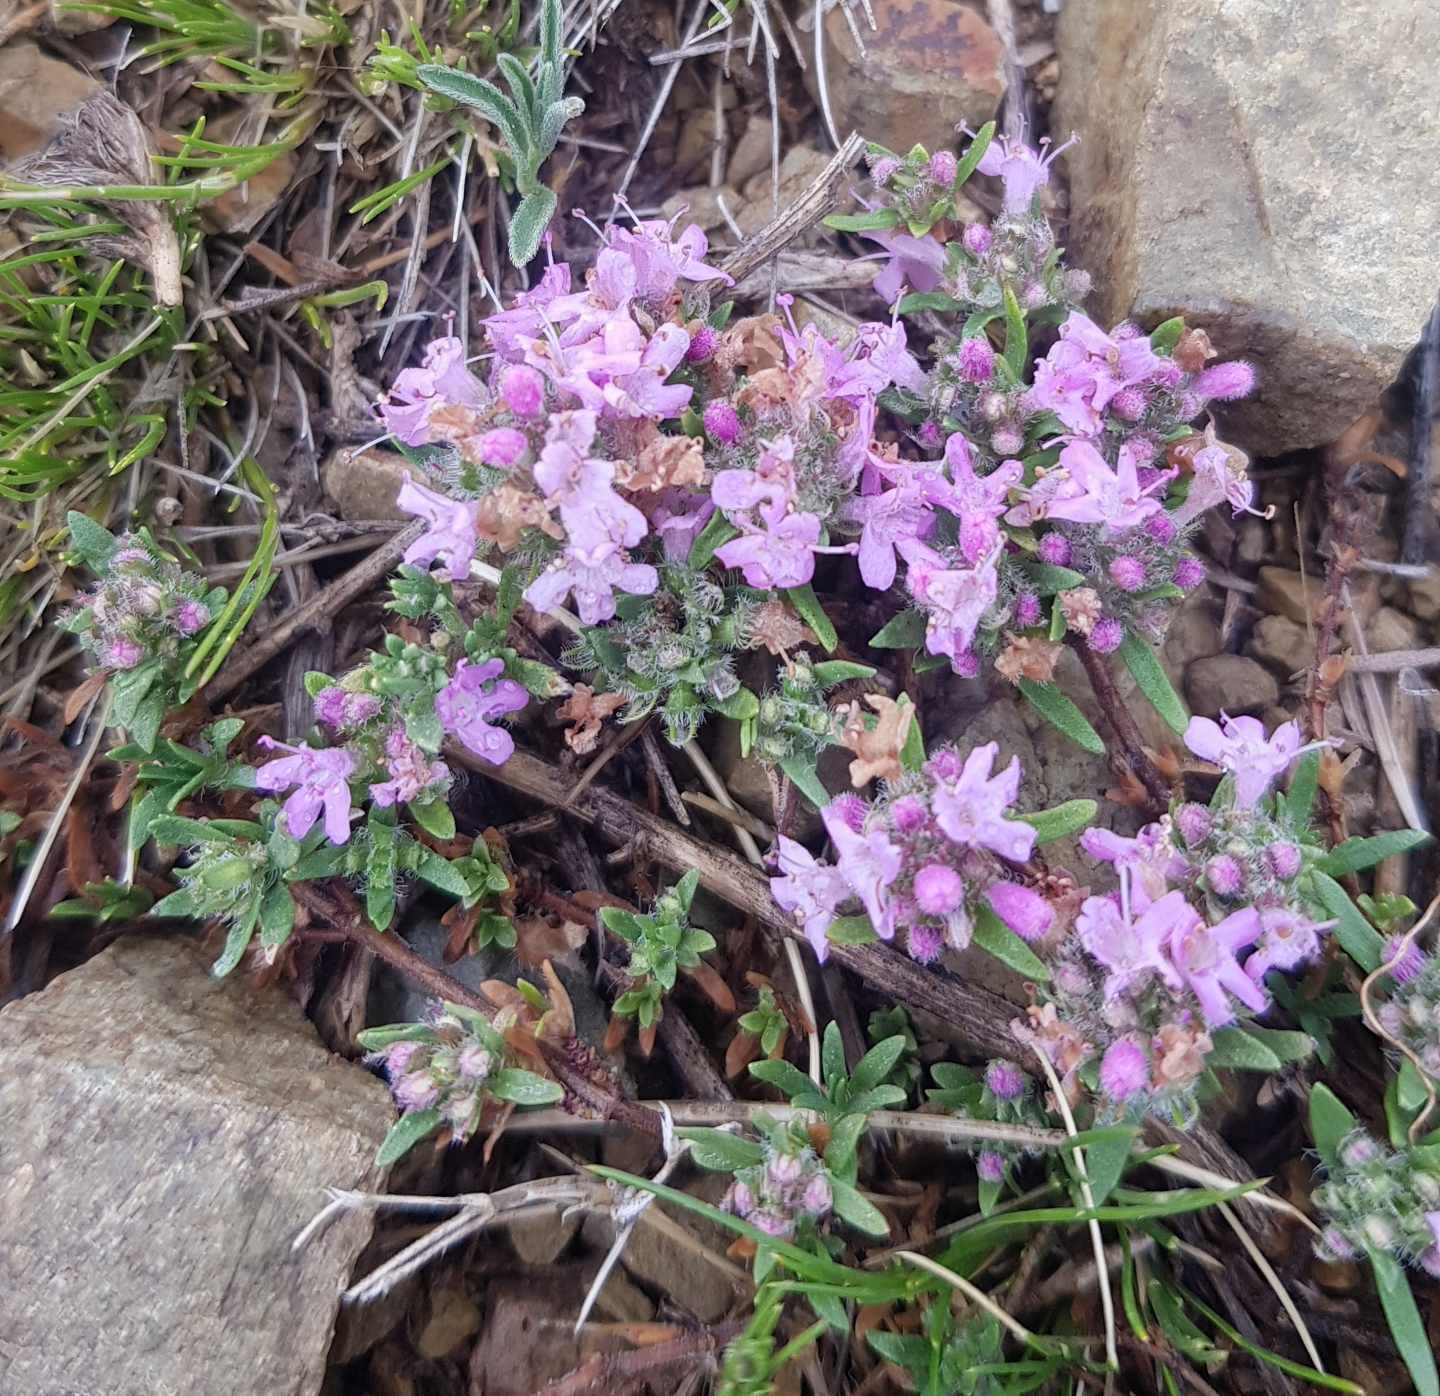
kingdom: Plantae
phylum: Tracheophyta
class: Magnoliopsida
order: Lamiales
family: Lamiaceae
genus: Thymus
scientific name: Thymus gobicus
